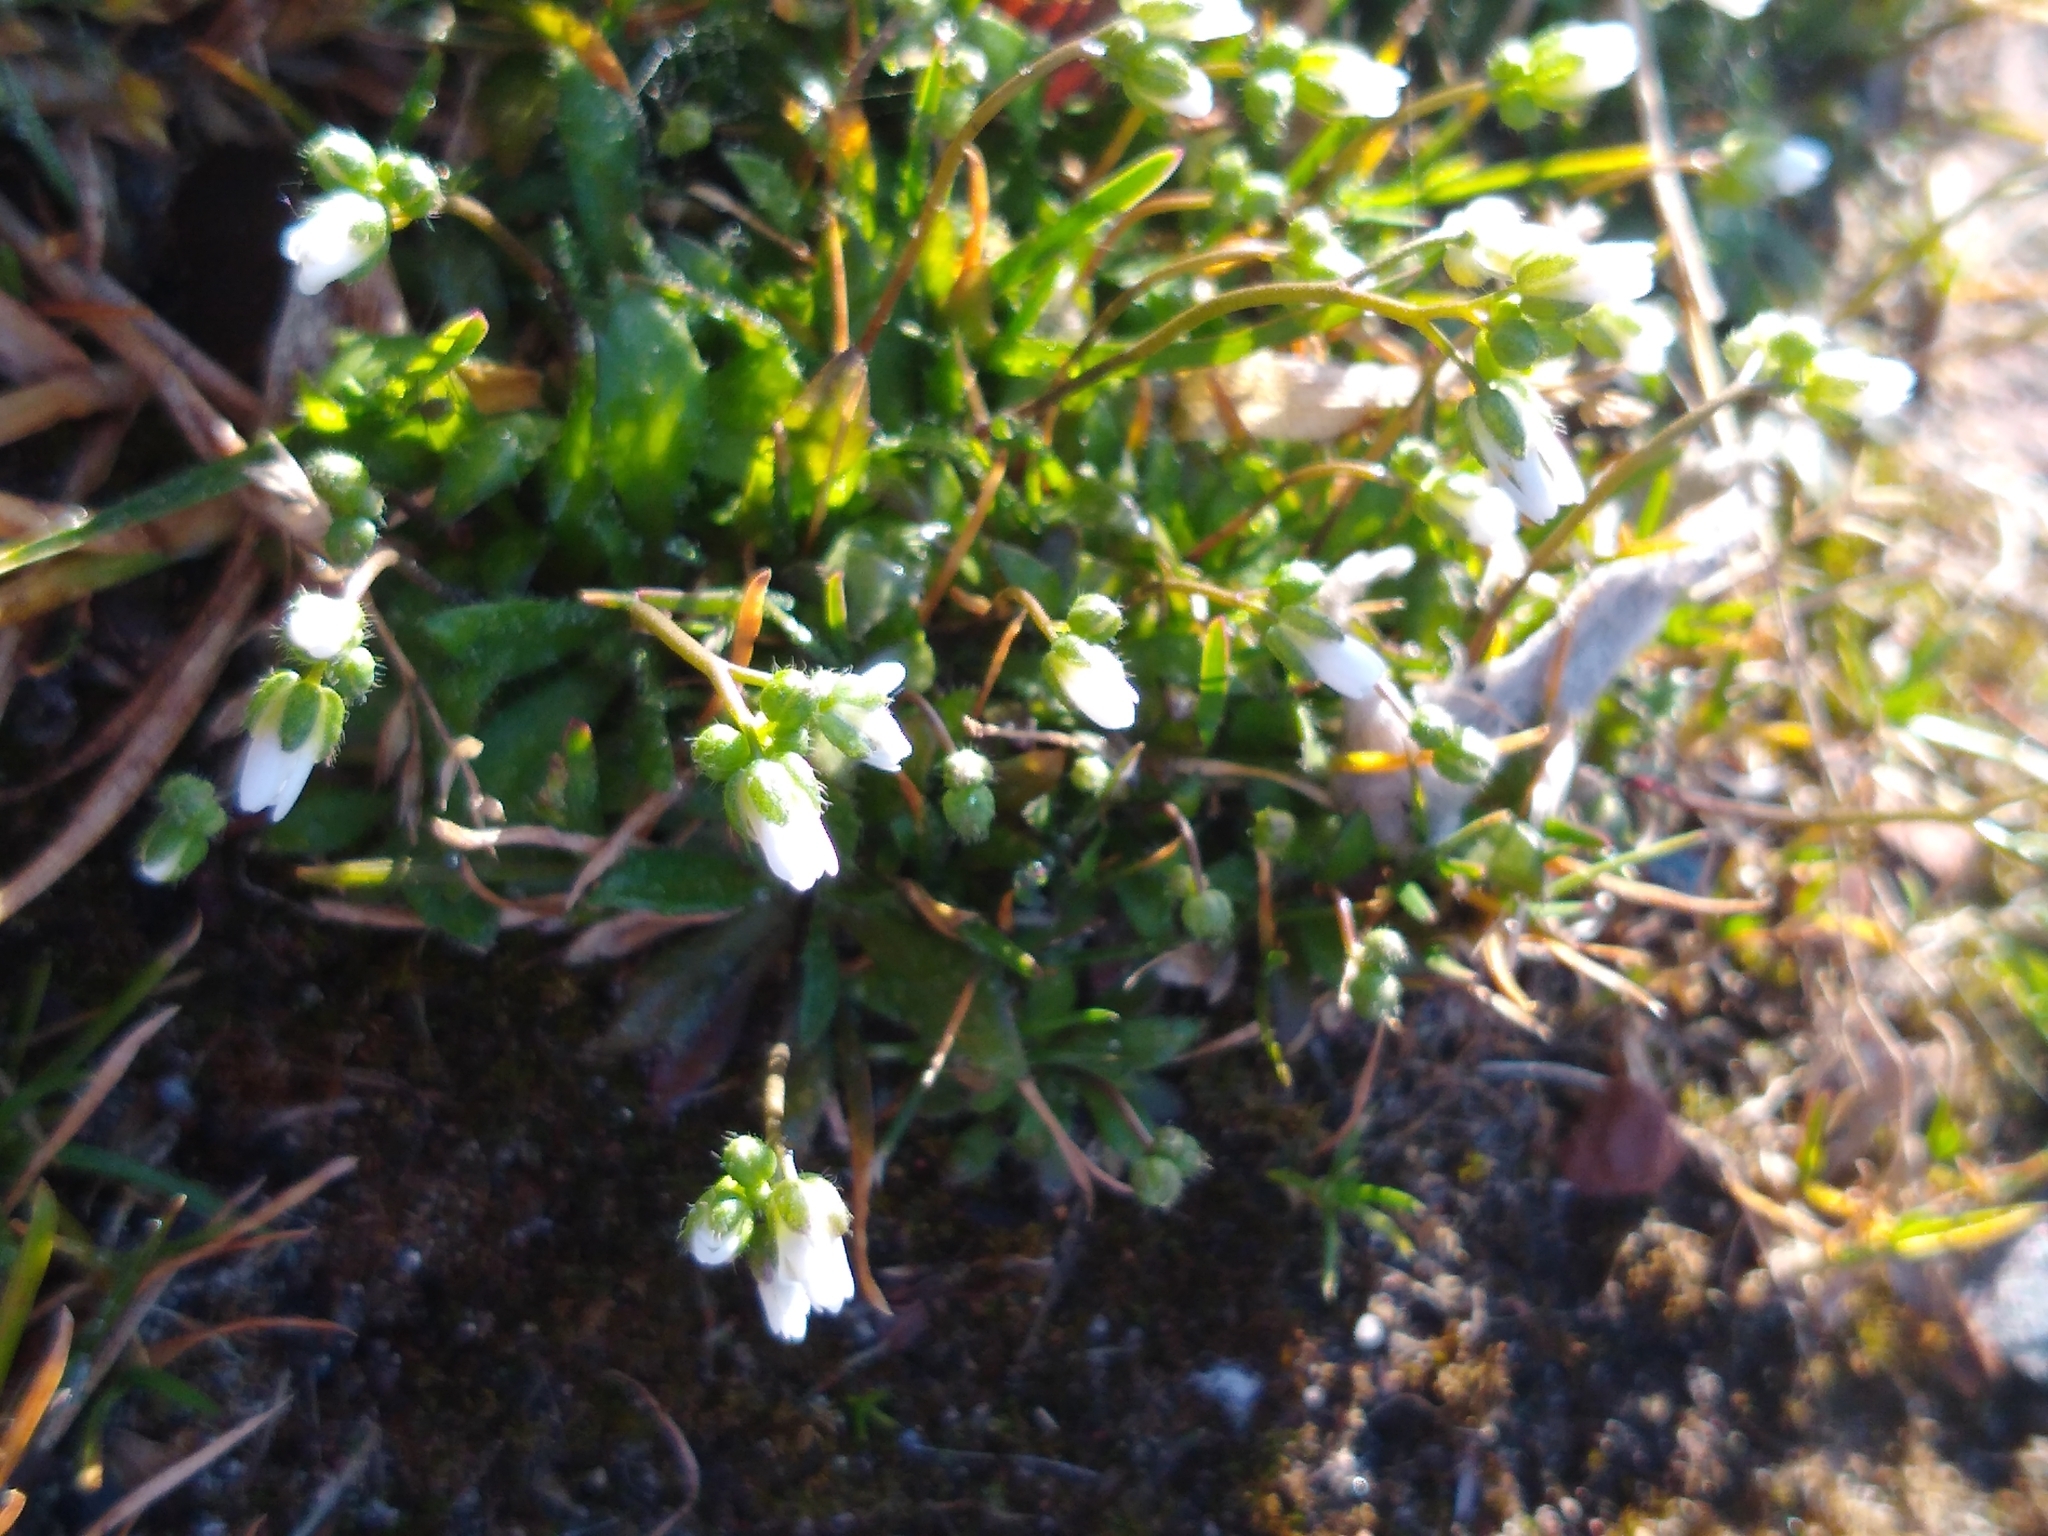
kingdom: Plantae
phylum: Tracheophyta
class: Magnoliopsida
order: Brassicales
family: Brassicaceae
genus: Draba
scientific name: Draba verna
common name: Spring draba
